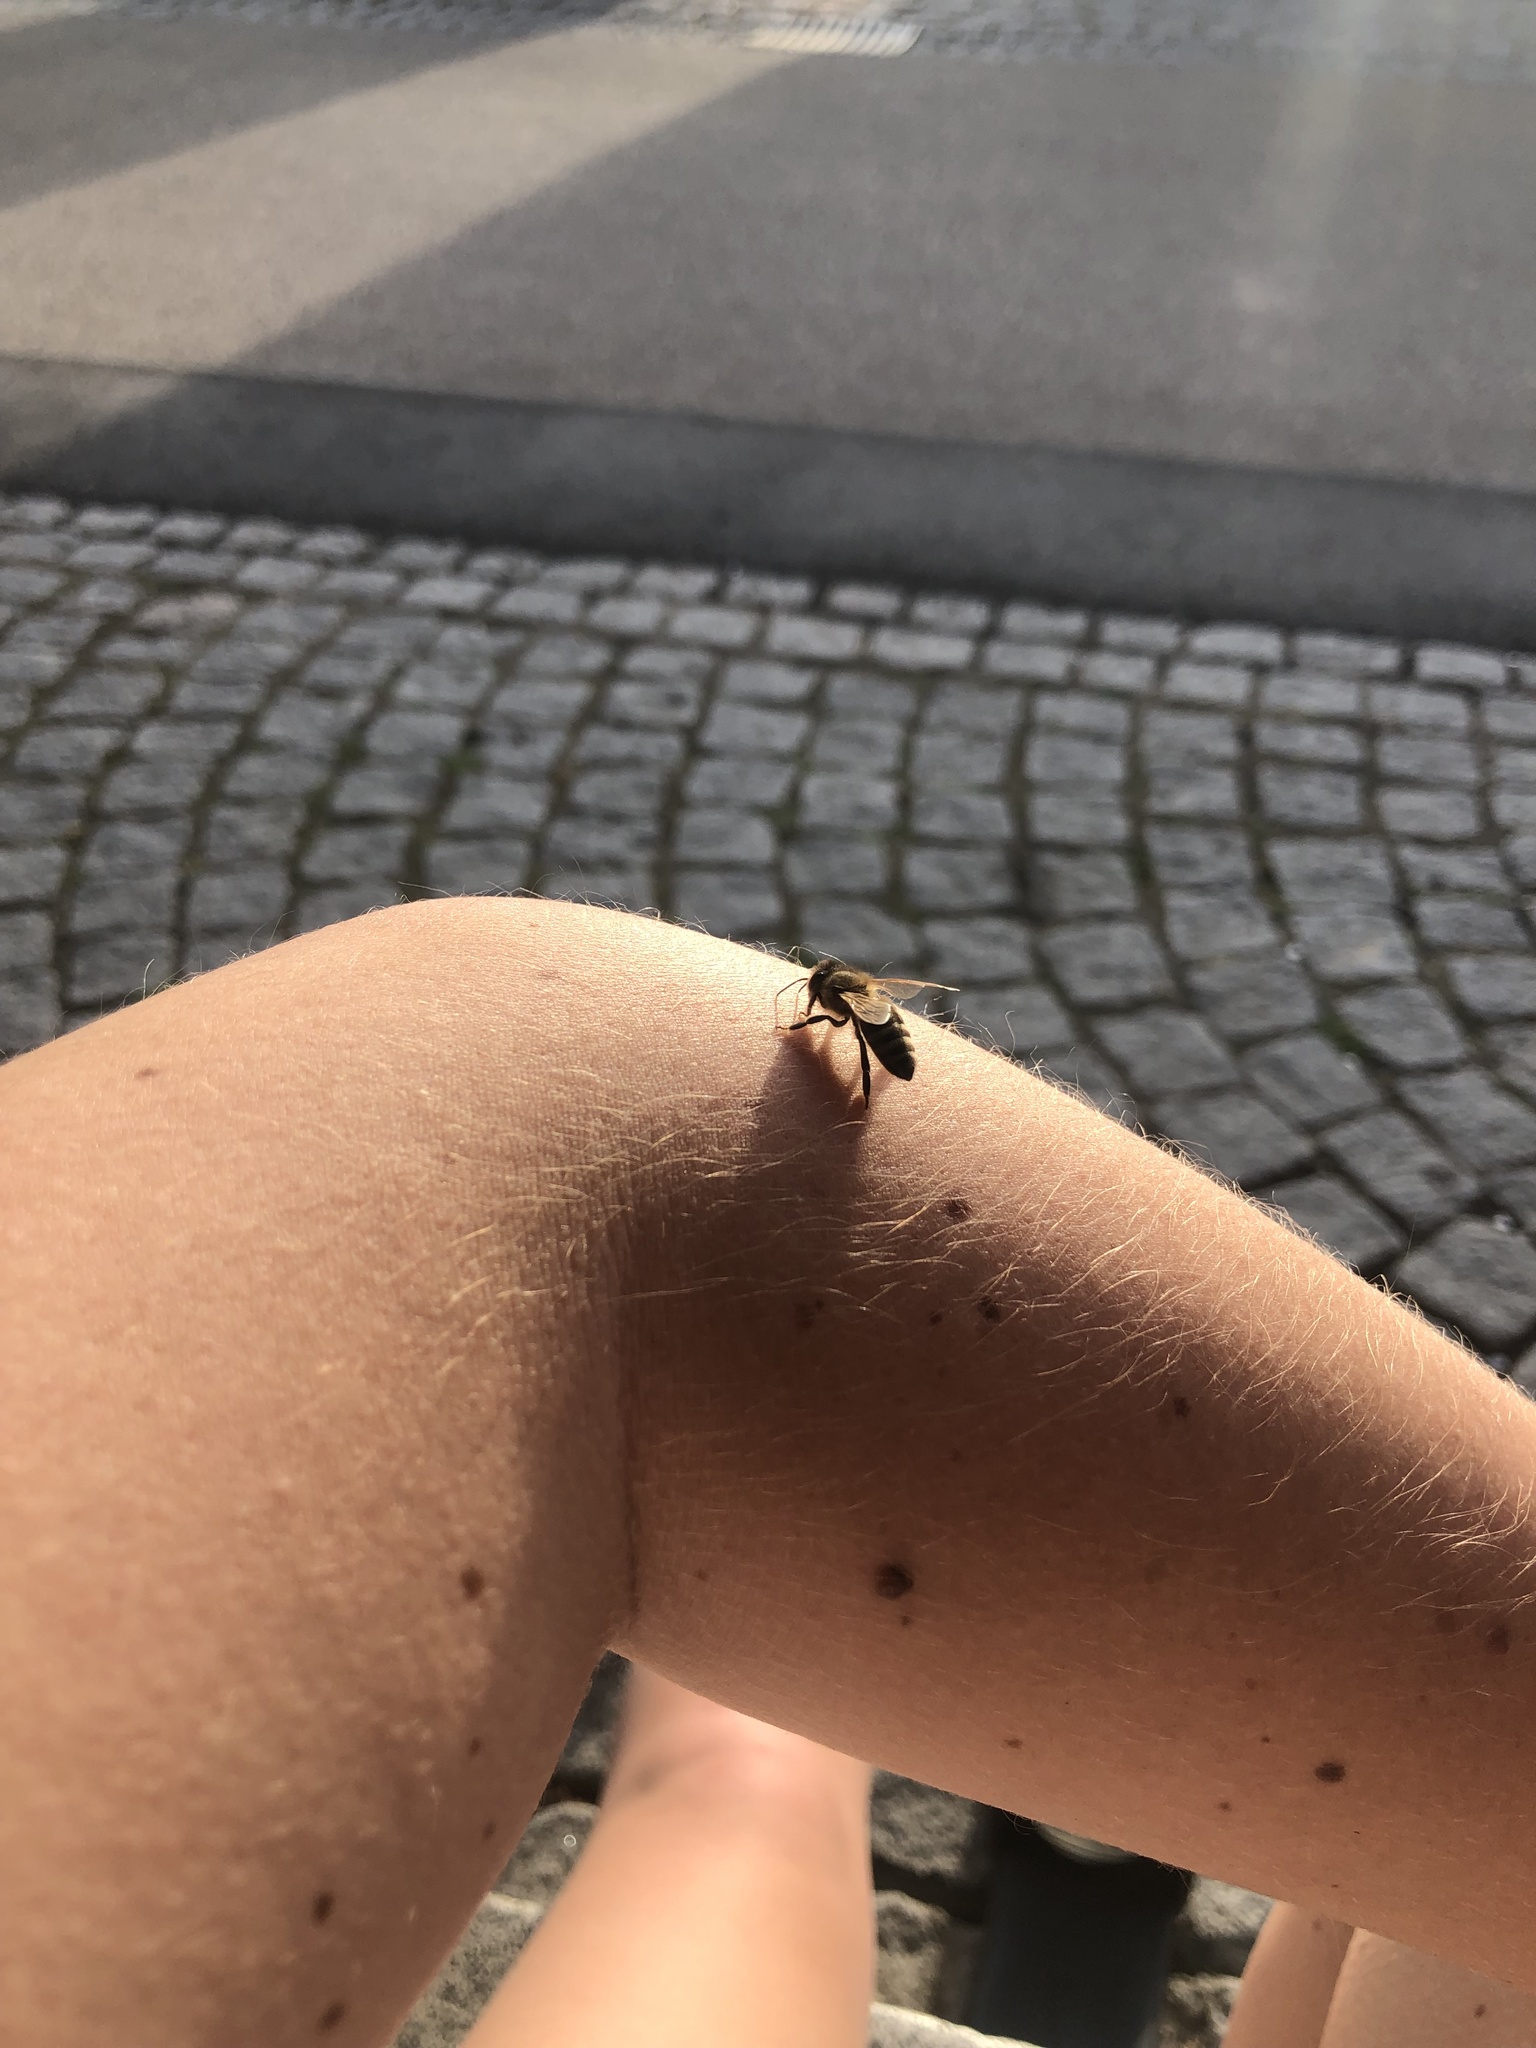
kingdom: Animalia
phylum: Arthropoda
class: Insecta
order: Hymenoptera
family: Apidae
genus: Apis
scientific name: Apis mellifera
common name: Honey bee
